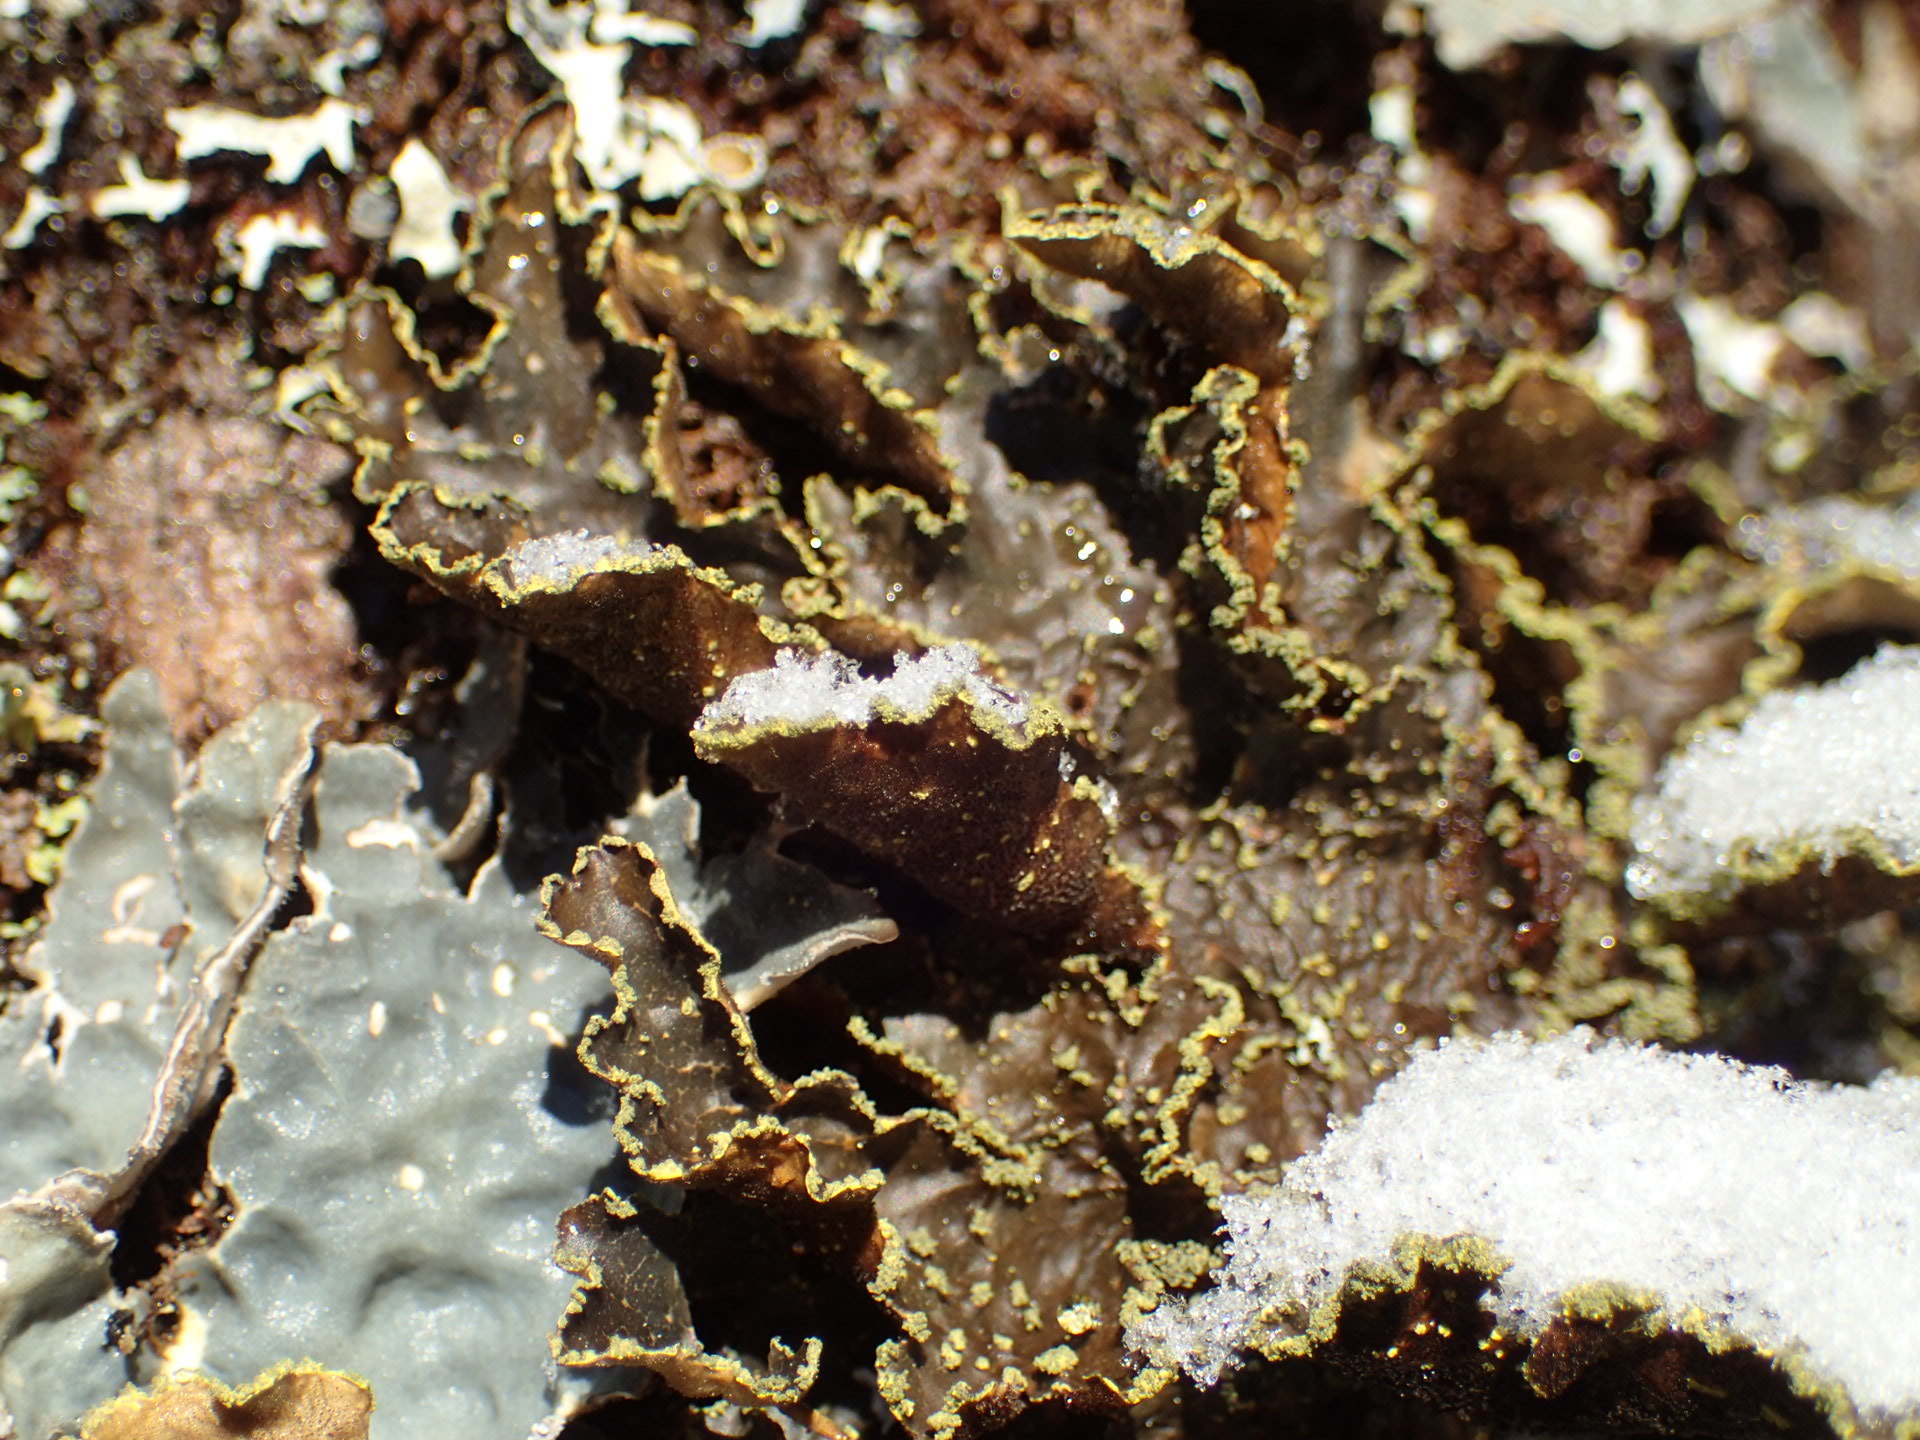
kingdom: Fungi
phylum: Ascomycota
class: Lecanoromycetes
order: Peltigerales
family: Lobariaceae
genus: Pseudocyphellaria
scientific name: Pseudocyphellaria holarctica
